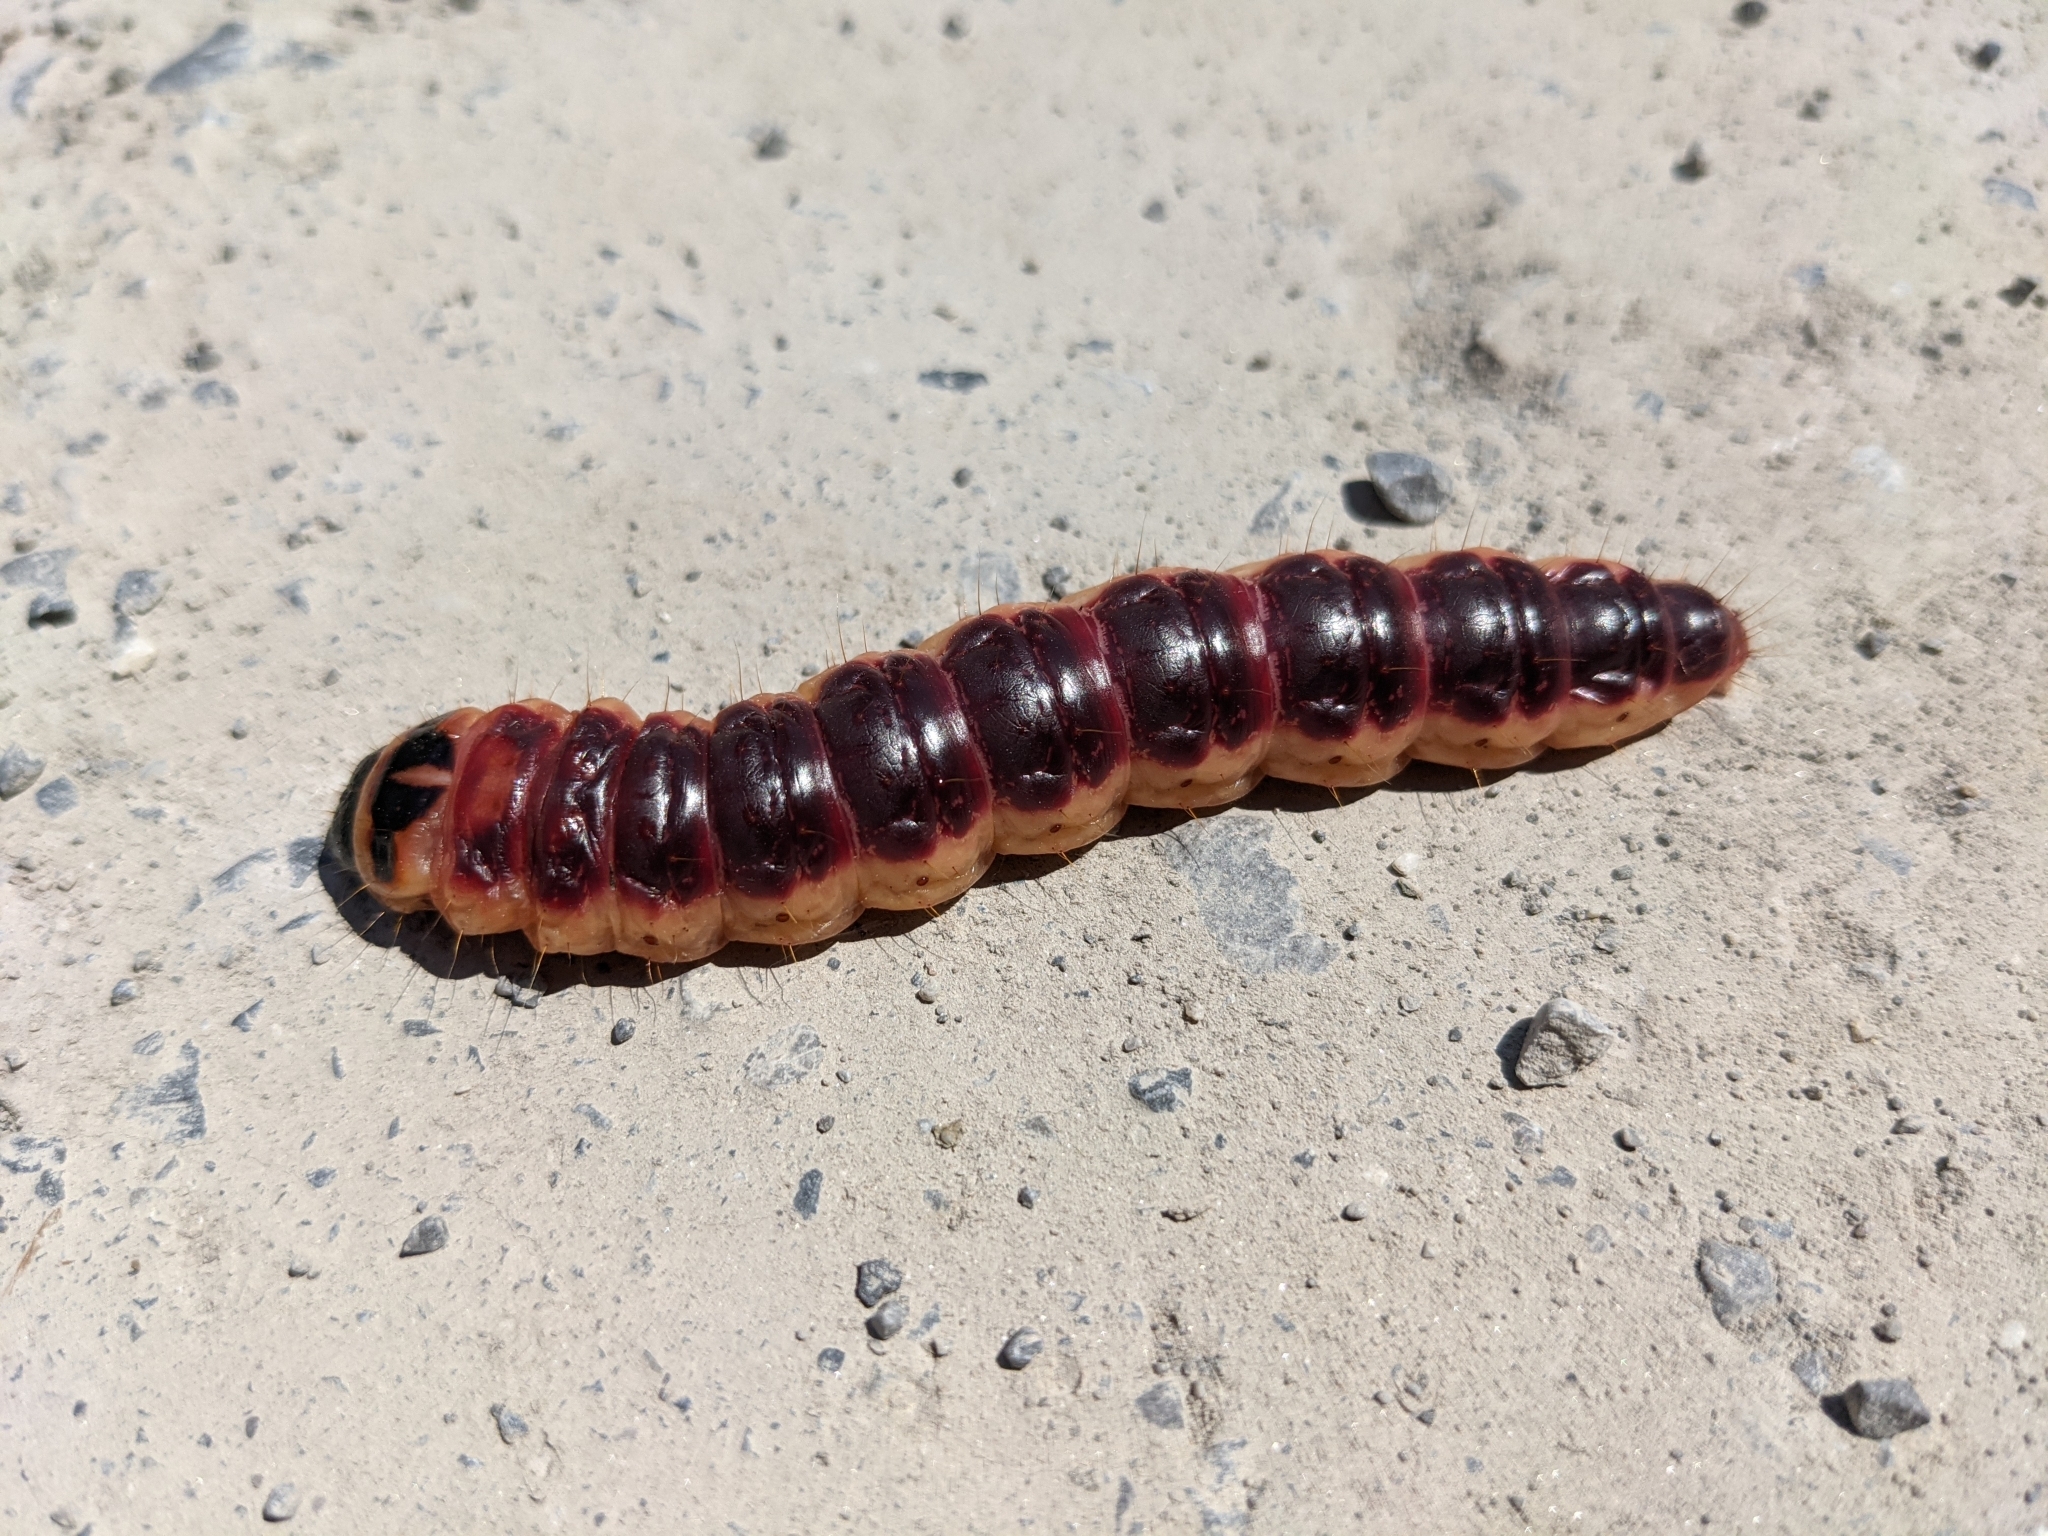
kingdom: Animalia
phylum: Arthropoda
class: Insecta
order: Lepidoptera
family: Cossidae
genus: Cossus
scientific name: Cossus cossus
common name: Goat moth
